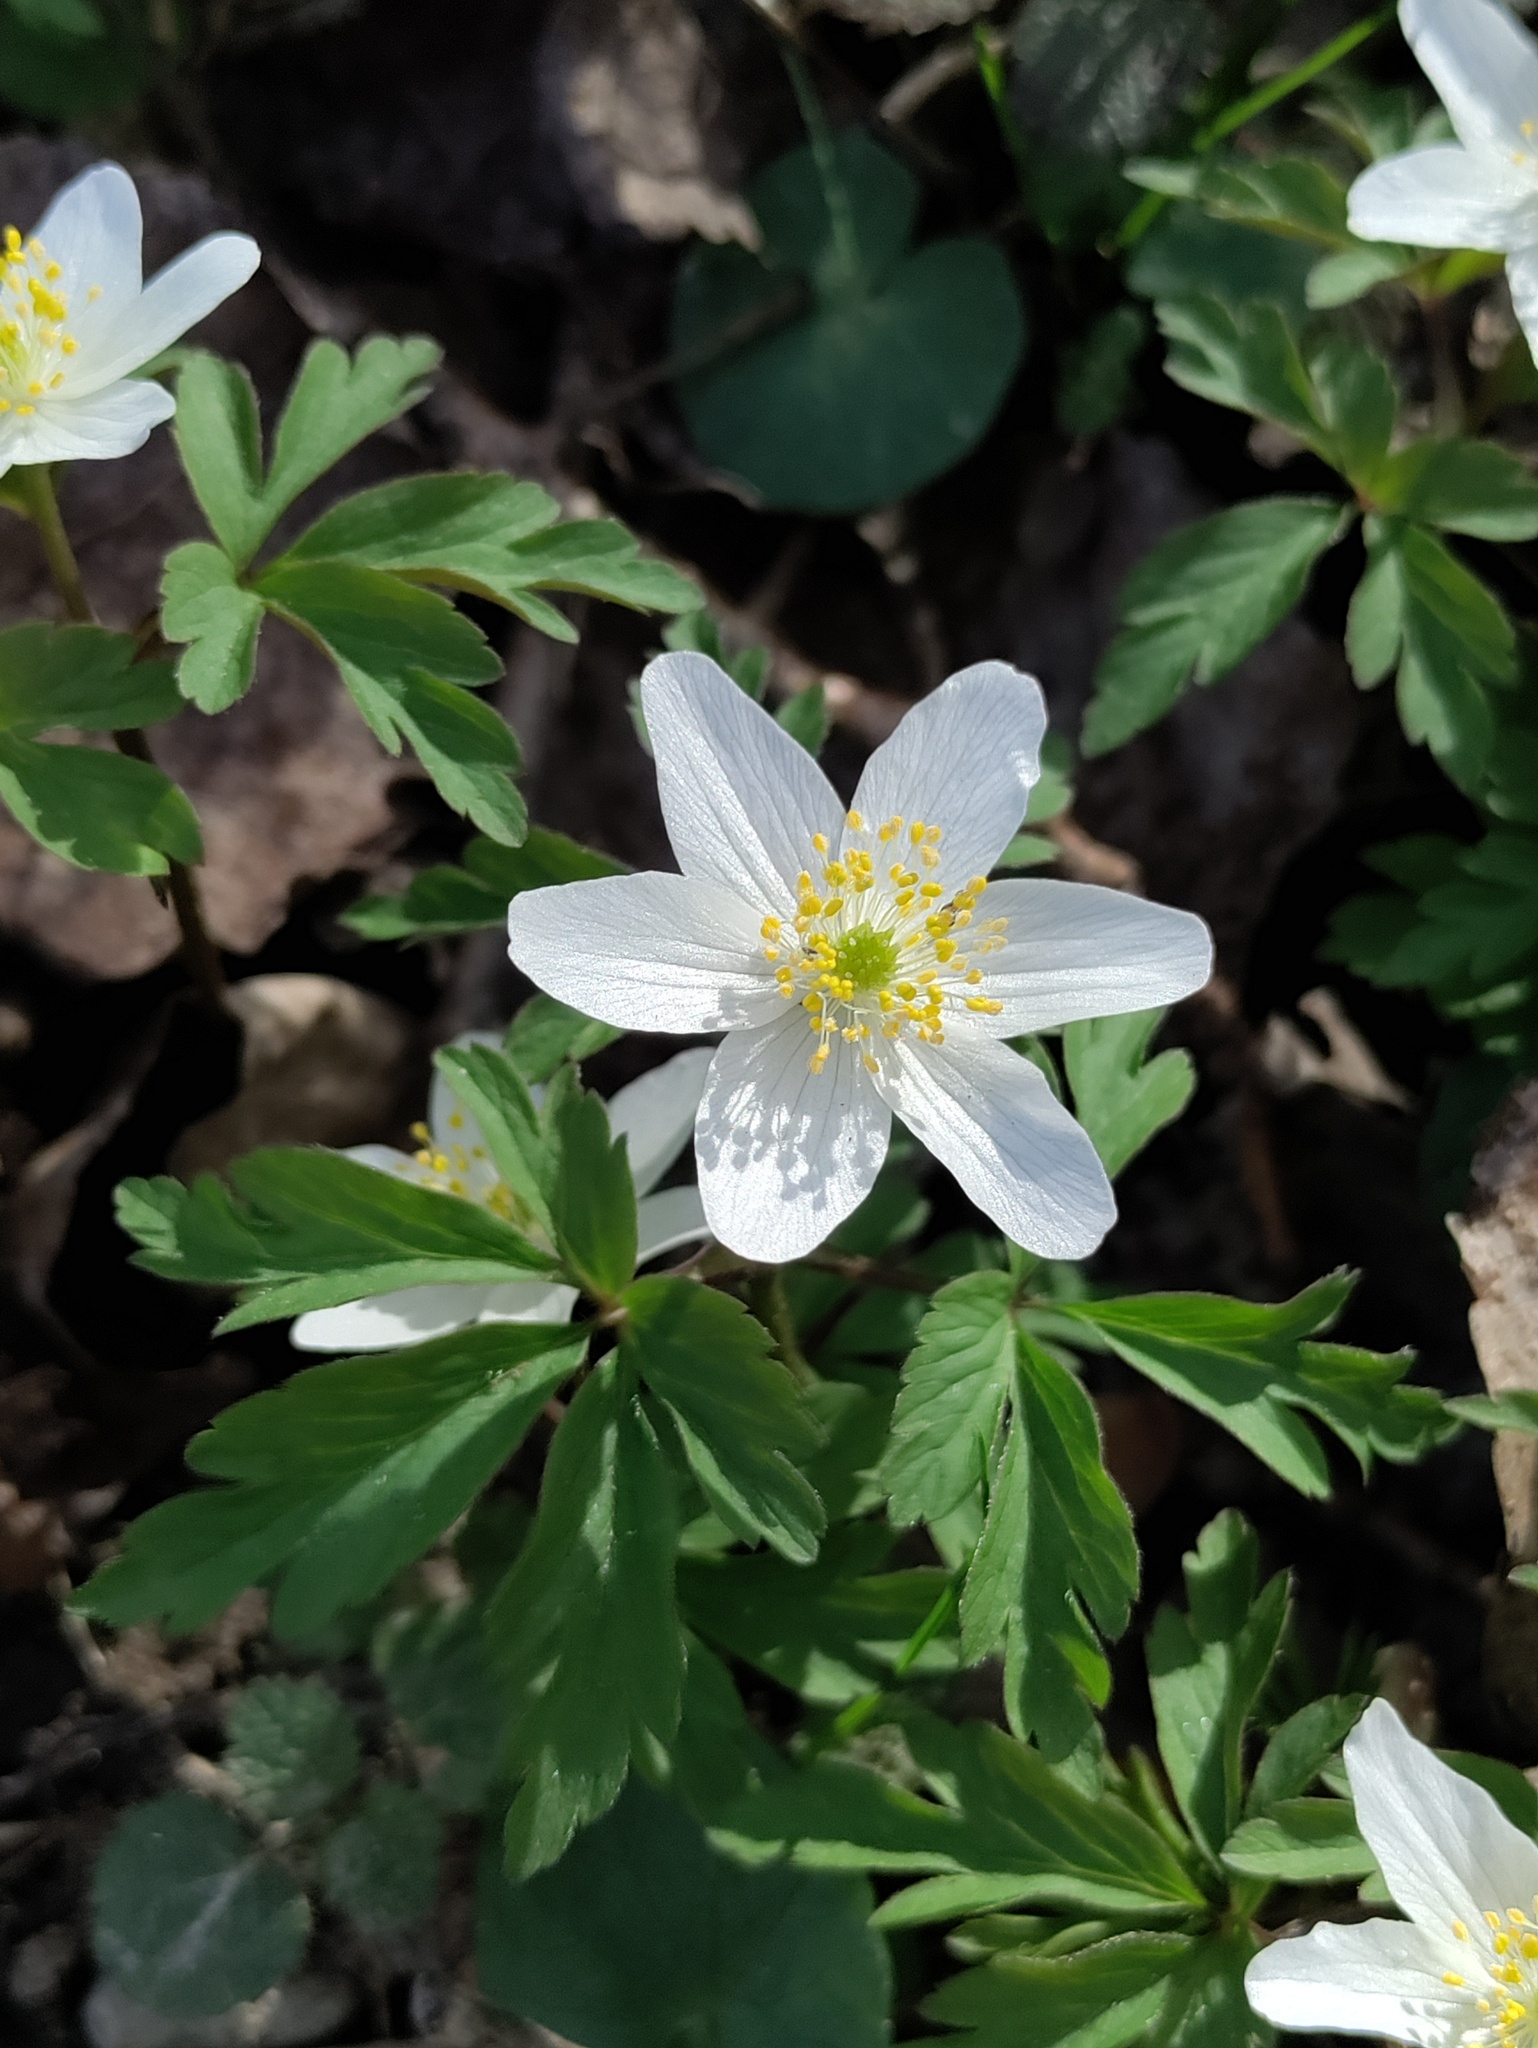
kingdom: Plantae
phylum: Tracheophyta
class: Magnoliopsida
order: Ranunculales
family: Ranunculaceae
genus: Anemone
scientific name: Anemone nemorosa
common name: Wood anemone
